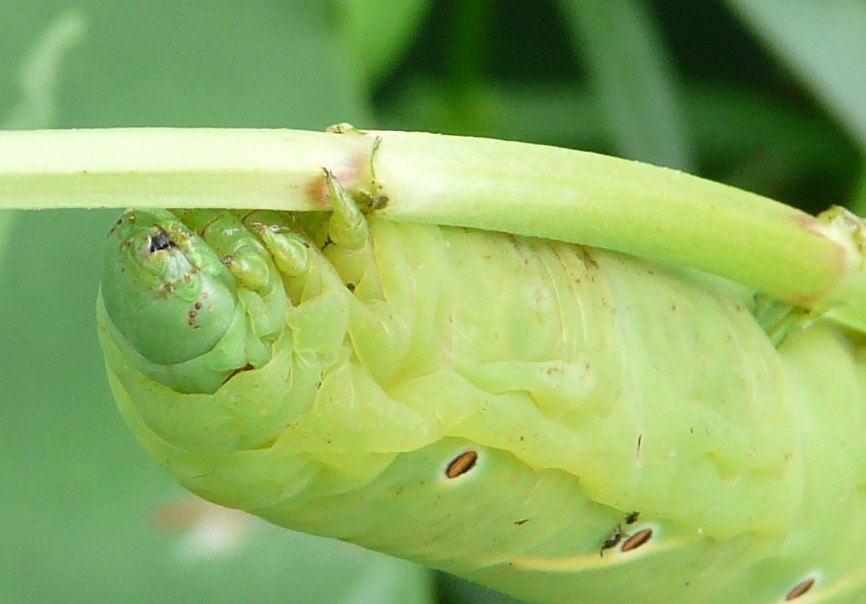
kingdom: Animalia
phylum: Arthropoda
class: Insecta
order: Lepidoptera
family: Sphingidae
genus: Eumorpha
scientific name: Eumorpha fasciatus
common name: Banded sphinx
